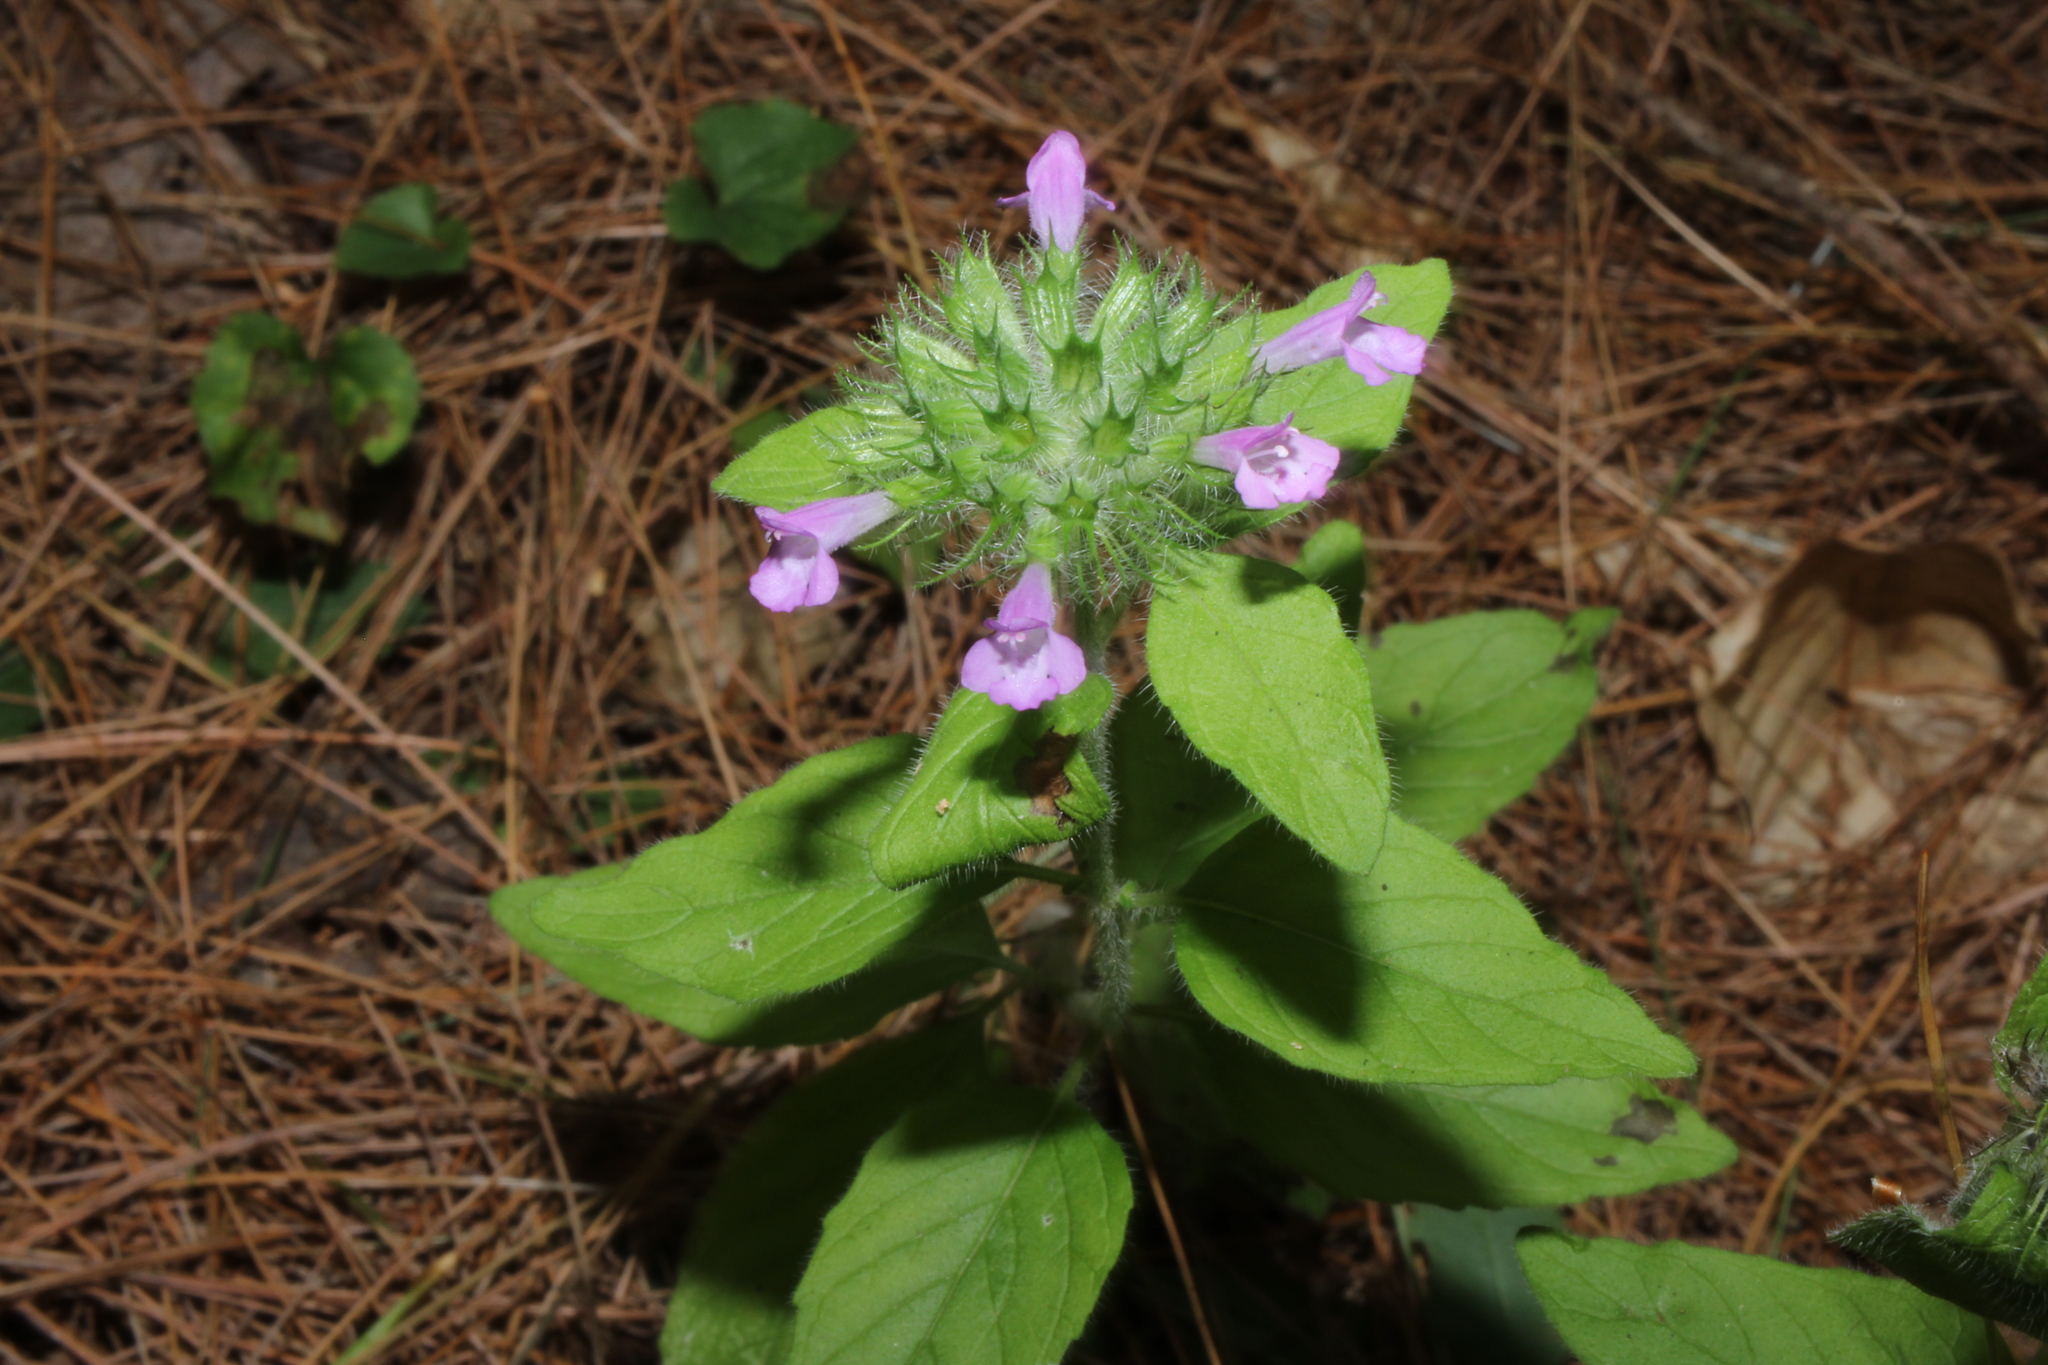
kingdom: Plantae
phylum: Tracheophyta
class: Magnoliopsida
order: Lamiales
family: Lamiaceae
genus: Clinopodium
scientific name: Clinopodium vulgare
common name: Wild basil
